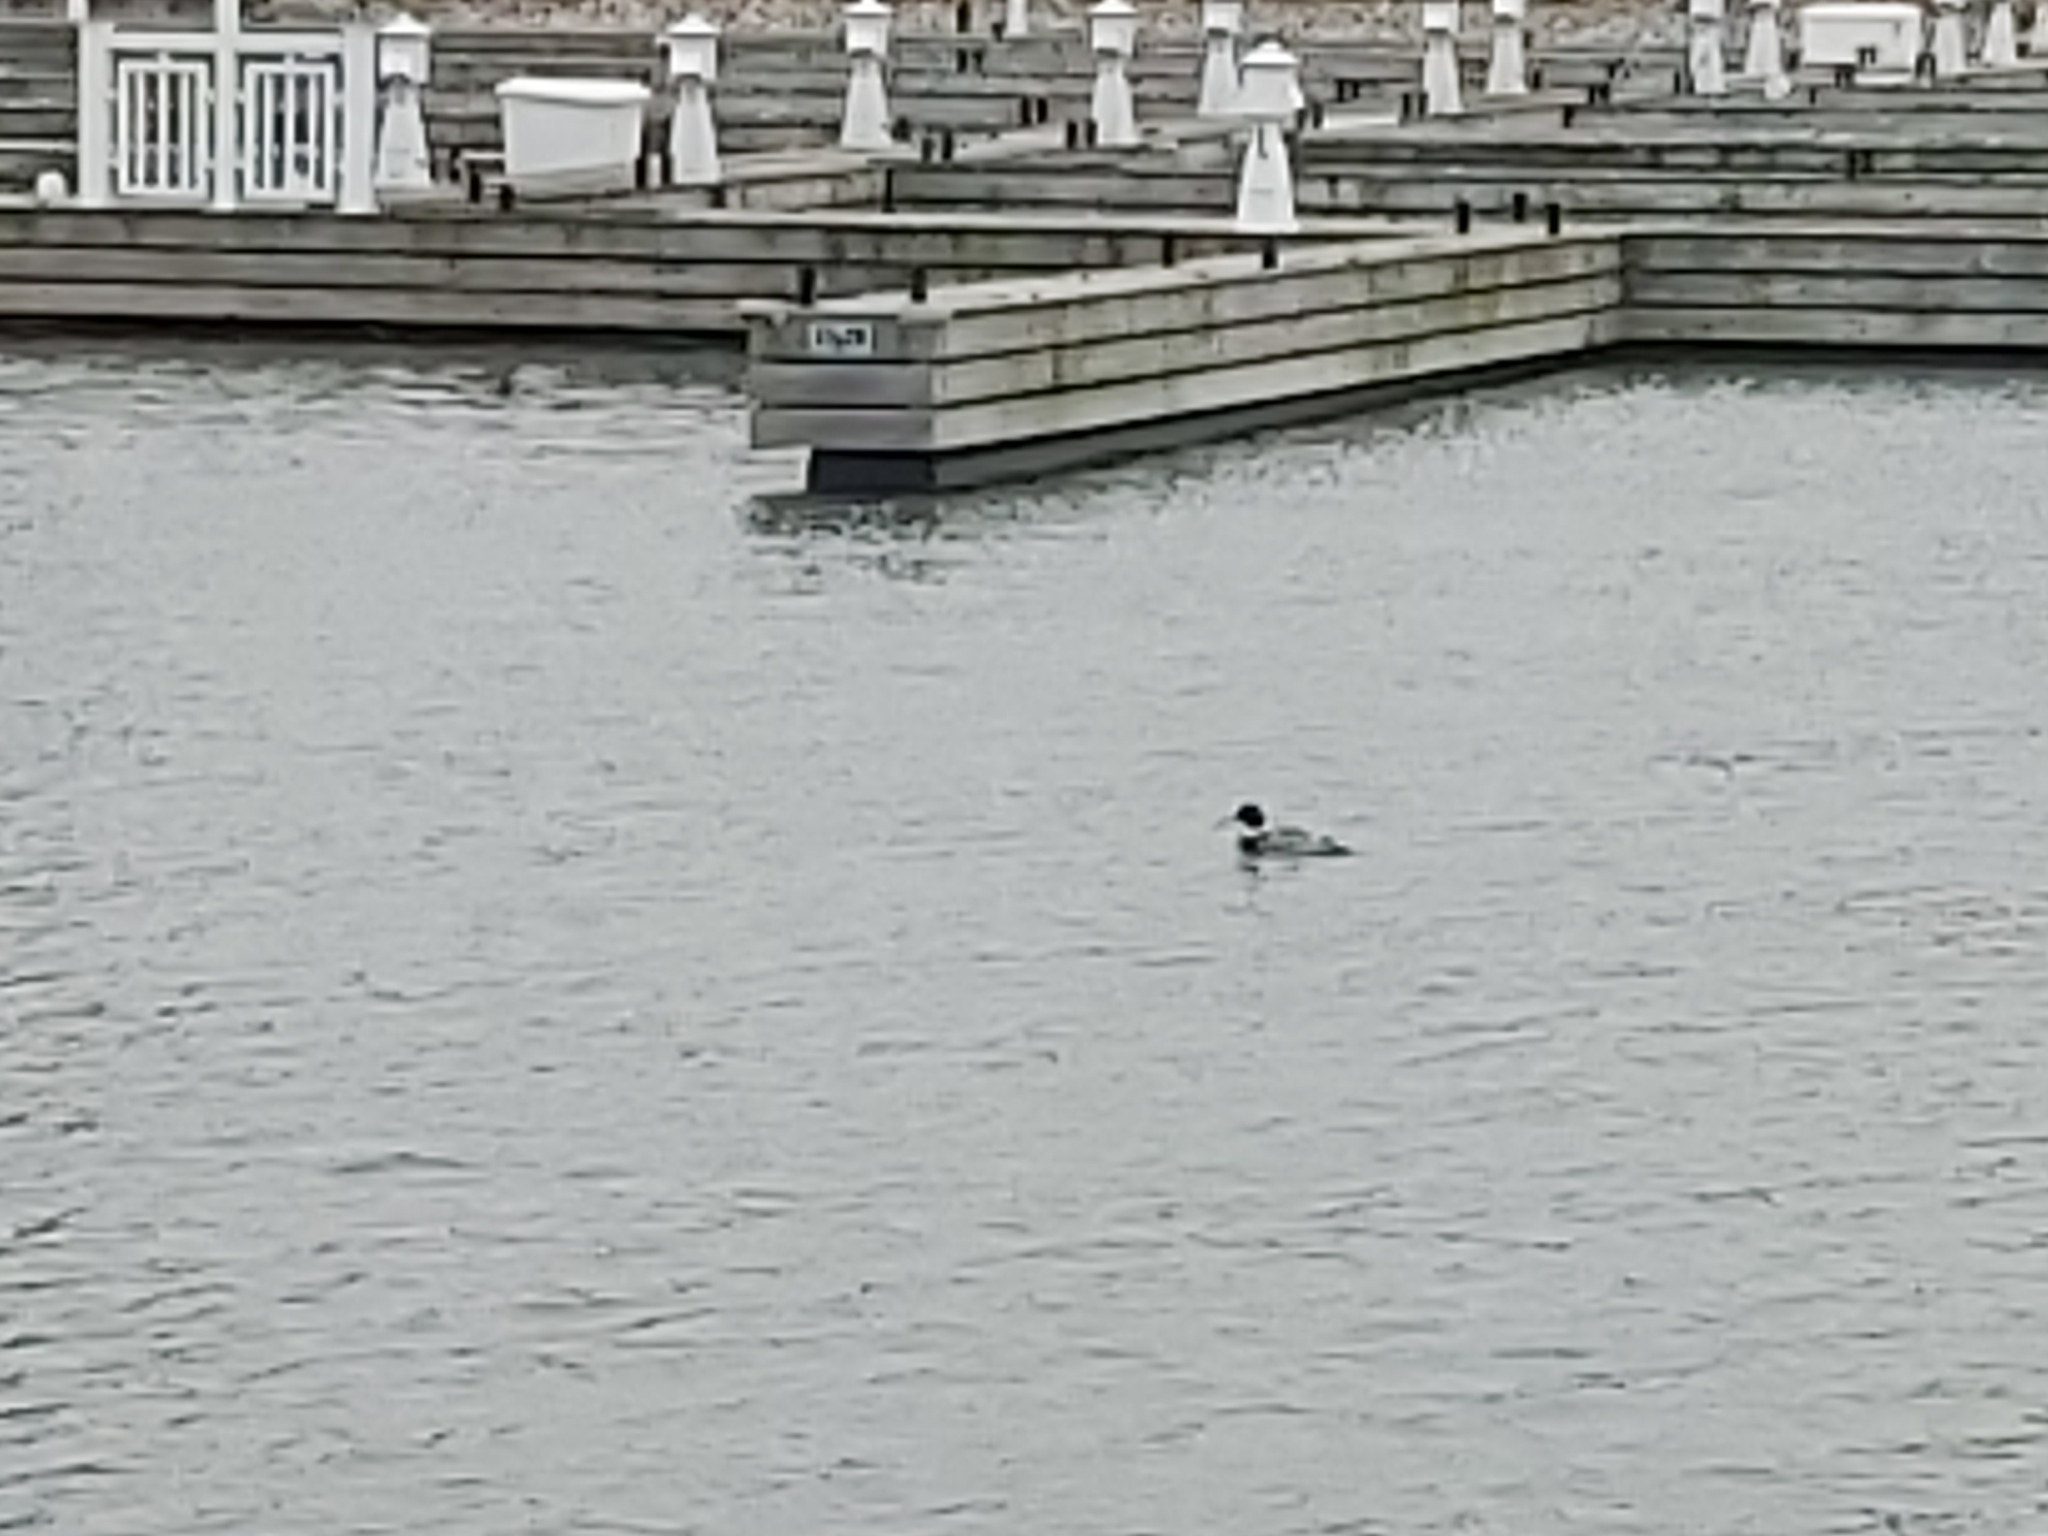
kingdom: Animalia
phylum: Chordata
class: Aves
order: Anseriformes
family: Anatidae
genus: Mergus
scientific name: Mergus serrator
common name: Red-breasted merganser
